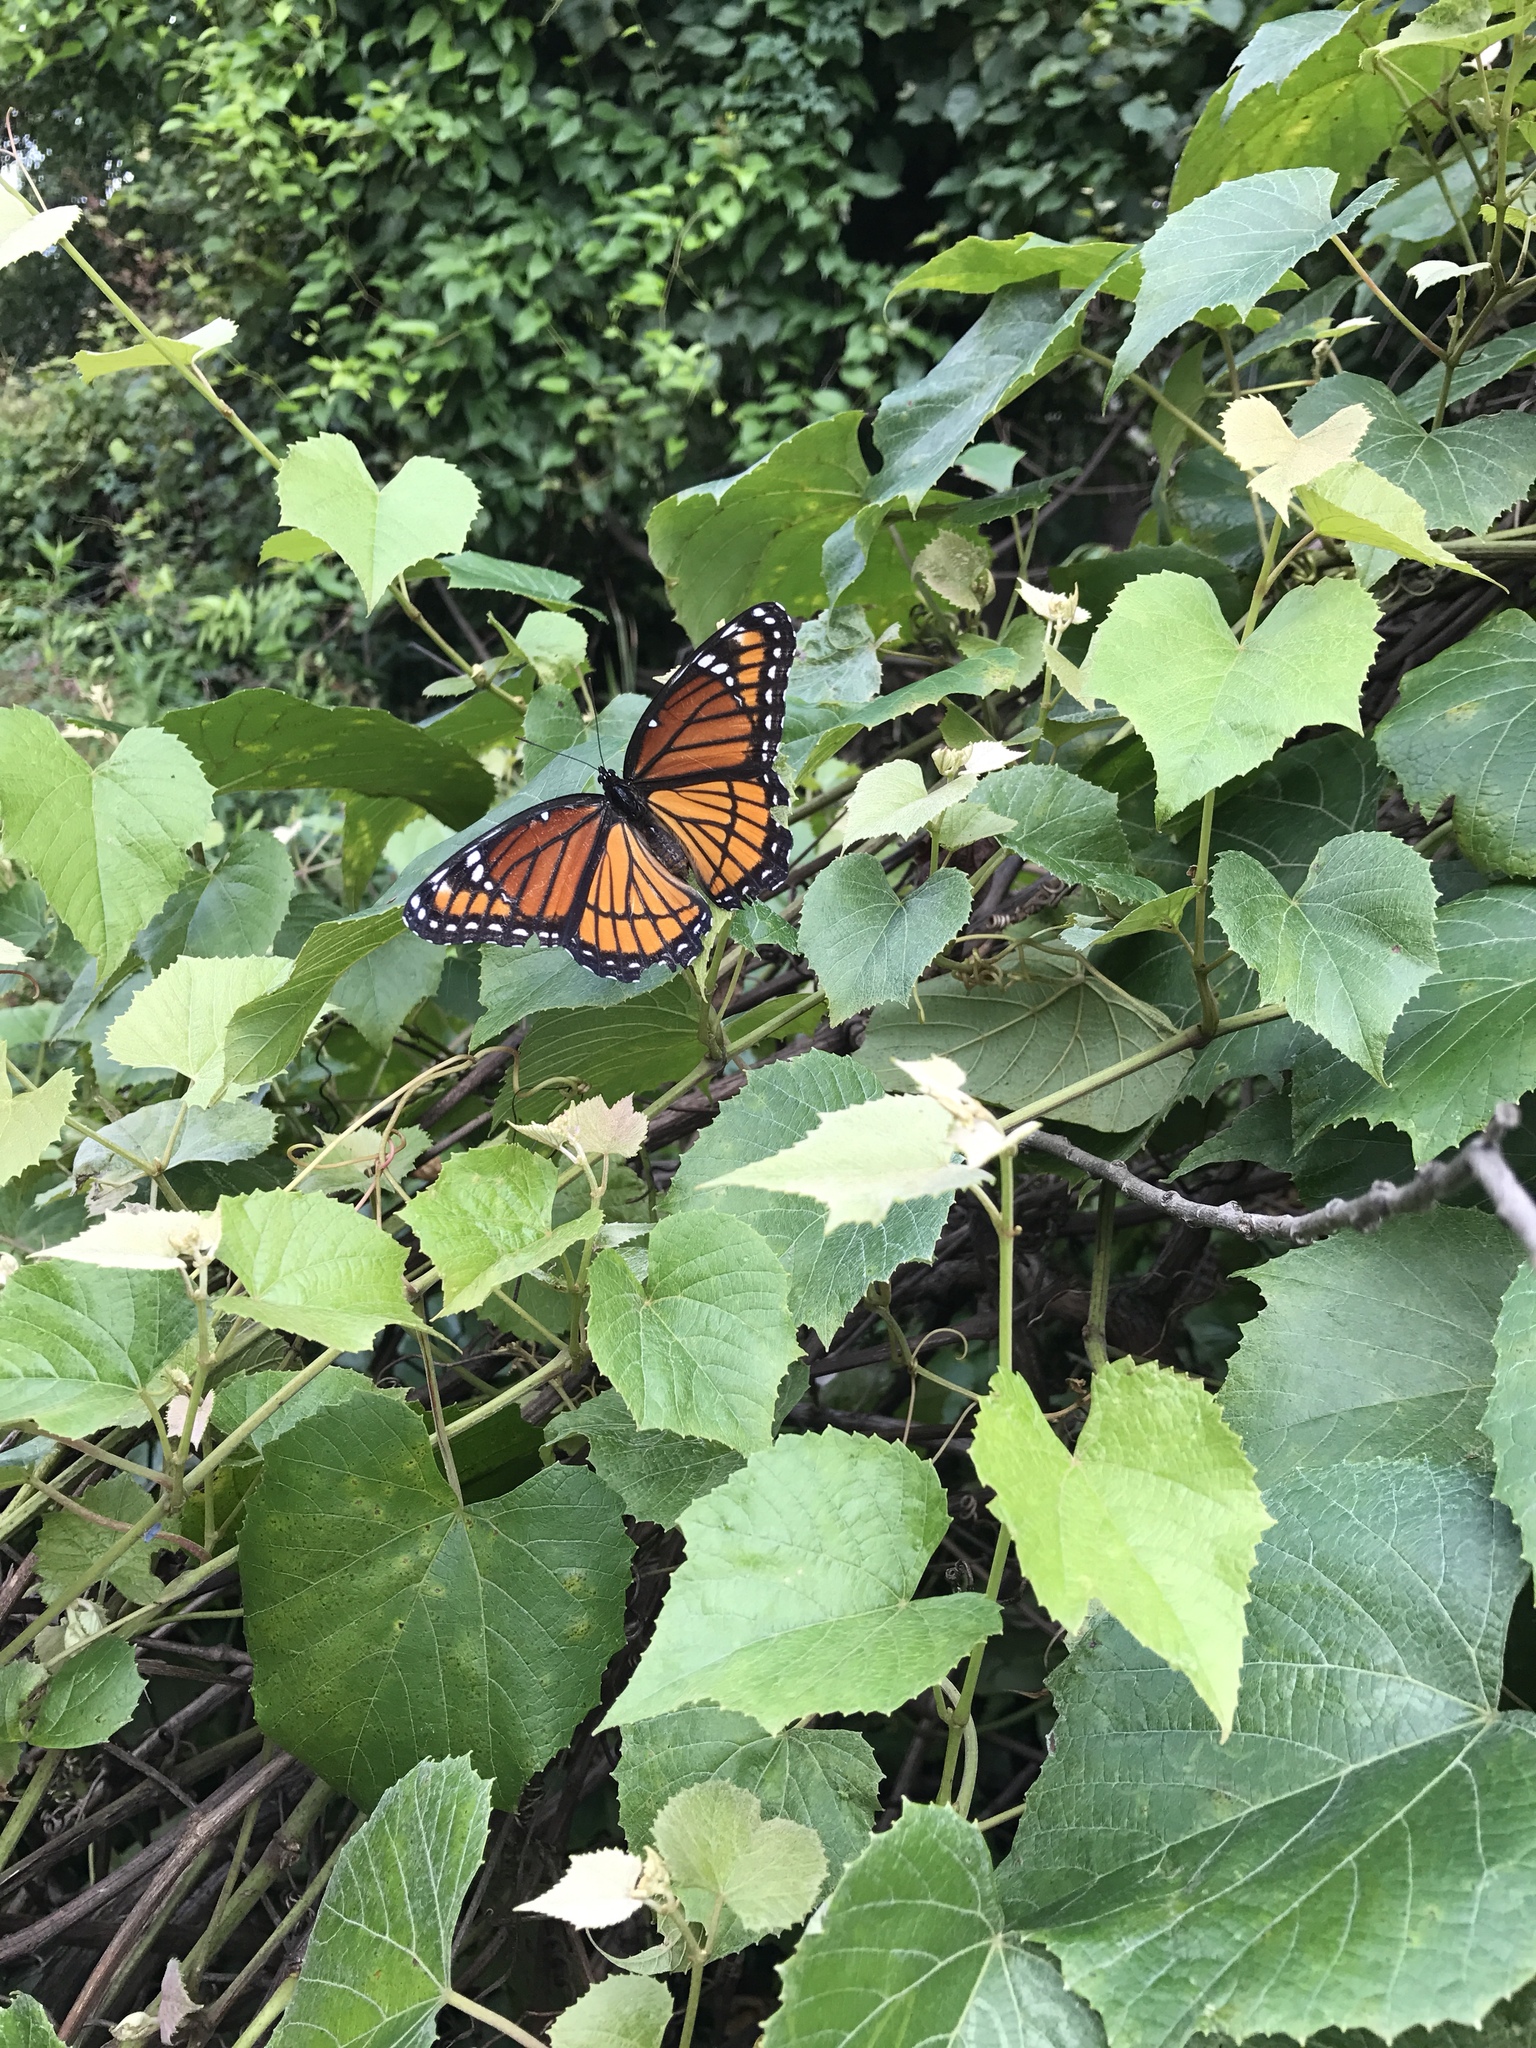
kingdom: Animalia
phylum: Arthropoda
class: Insecta
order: Lepidoptera
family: Nymphalidae
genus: Limenitis
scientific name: Limenitis archippus
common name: Viceroy
